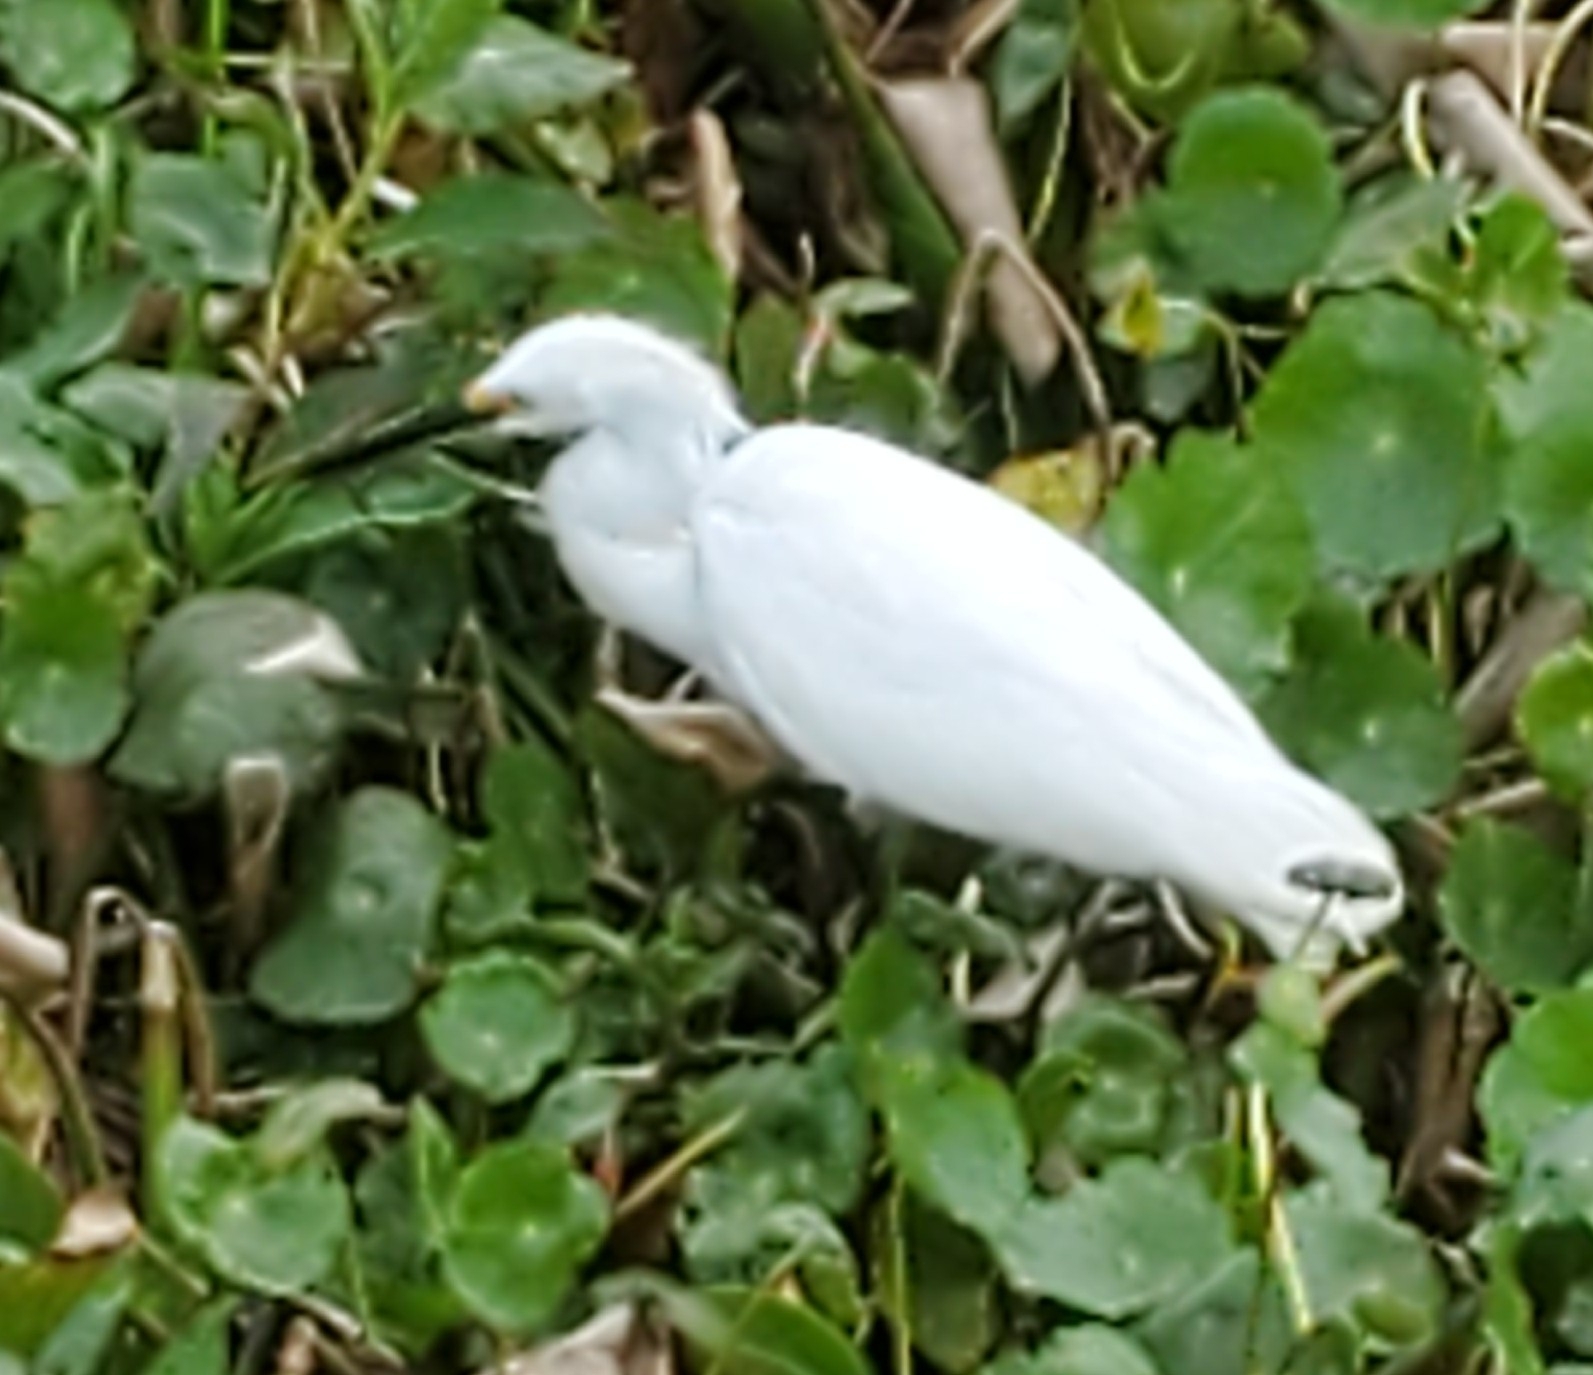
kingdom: Animalia
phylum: Chordata
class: Aves
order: Pelecaniformes
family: Ardeidae
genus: Egretta
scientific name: Egretta thula
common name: Snowy egret
